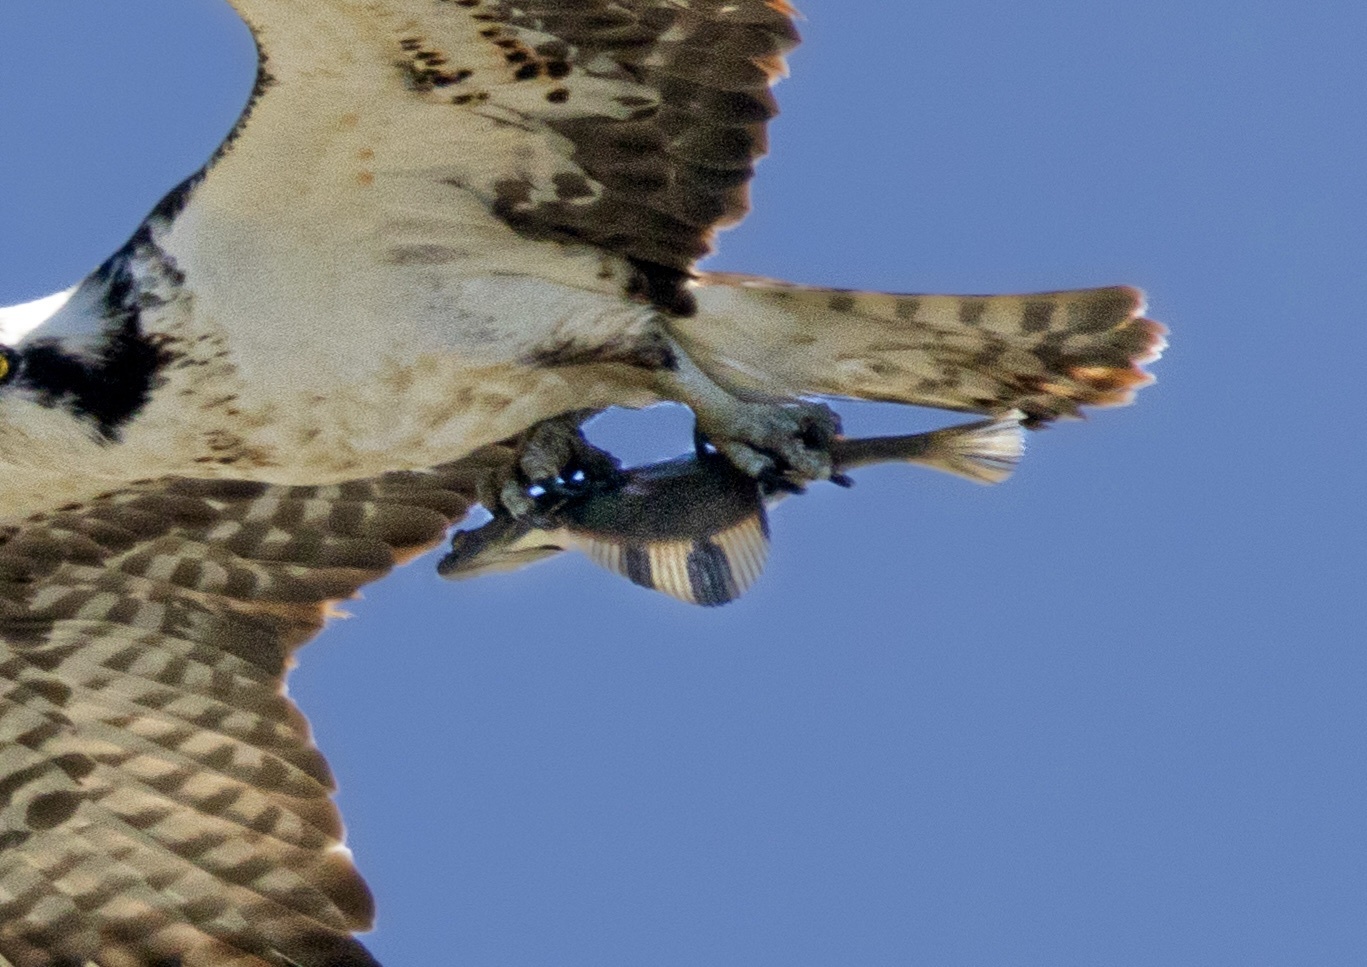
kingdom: Animalia
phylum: Chordata
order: Pleuronectiformes
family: Pleuronectidae
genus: Platichthys
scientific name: Platichthys stellatus
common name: Starry flounder
